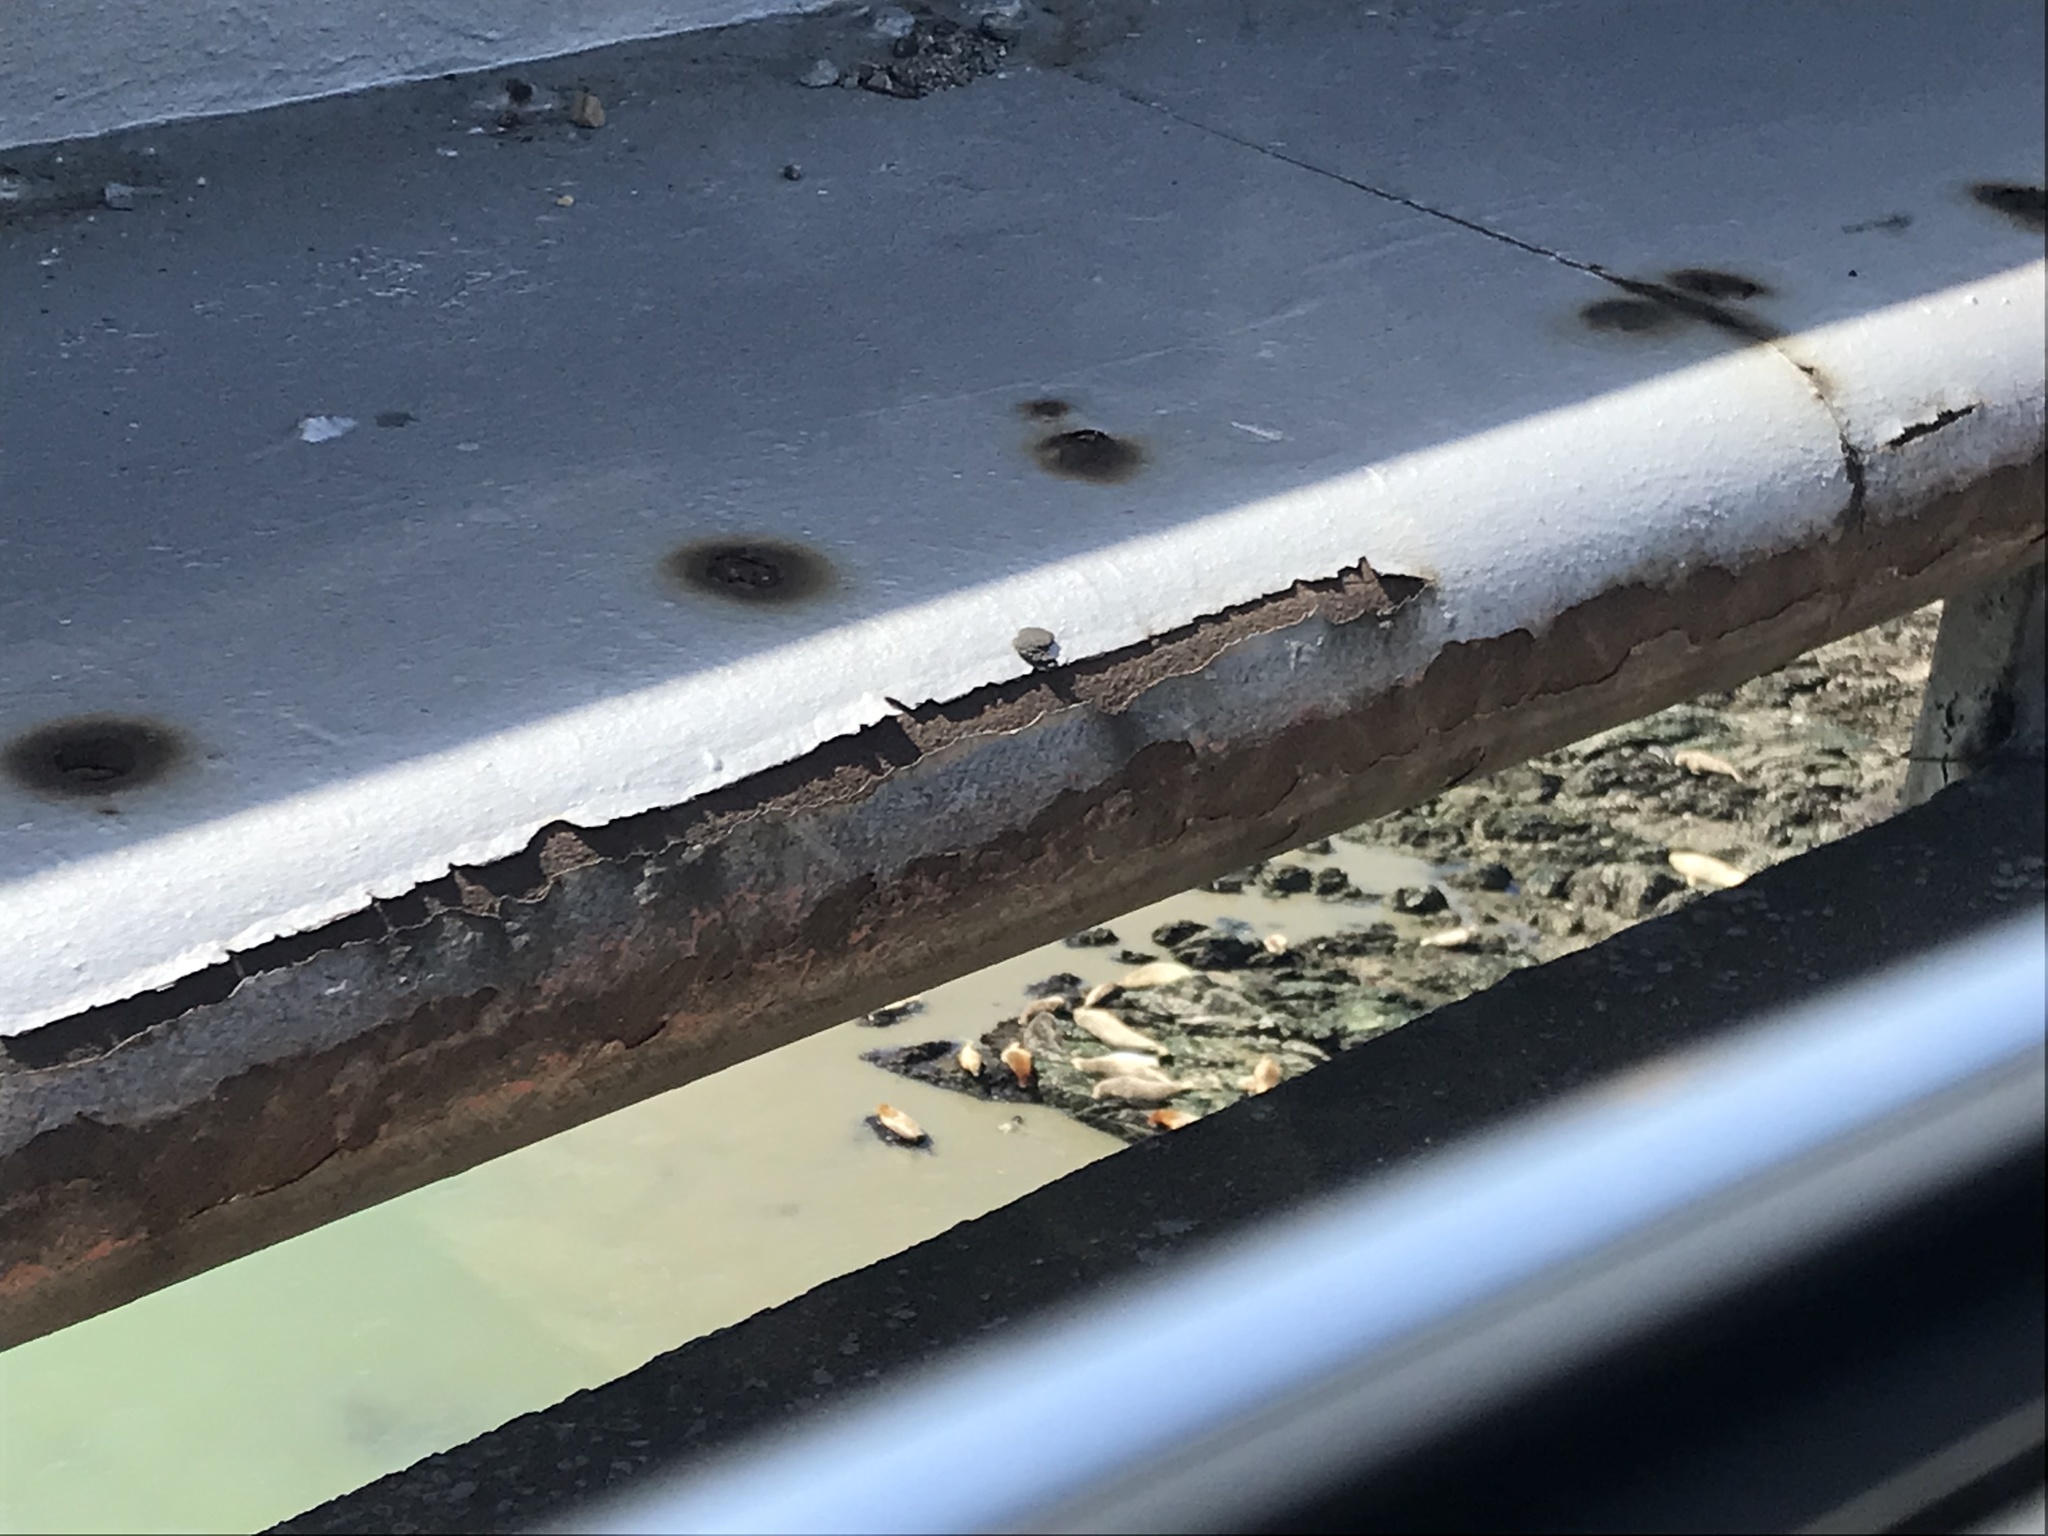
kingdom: Animalia
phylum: Chordata
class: Mammalia
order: Carnivora
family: Phocidae
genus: Phoca
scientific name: Phoca vitulina
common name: Harbor seal
